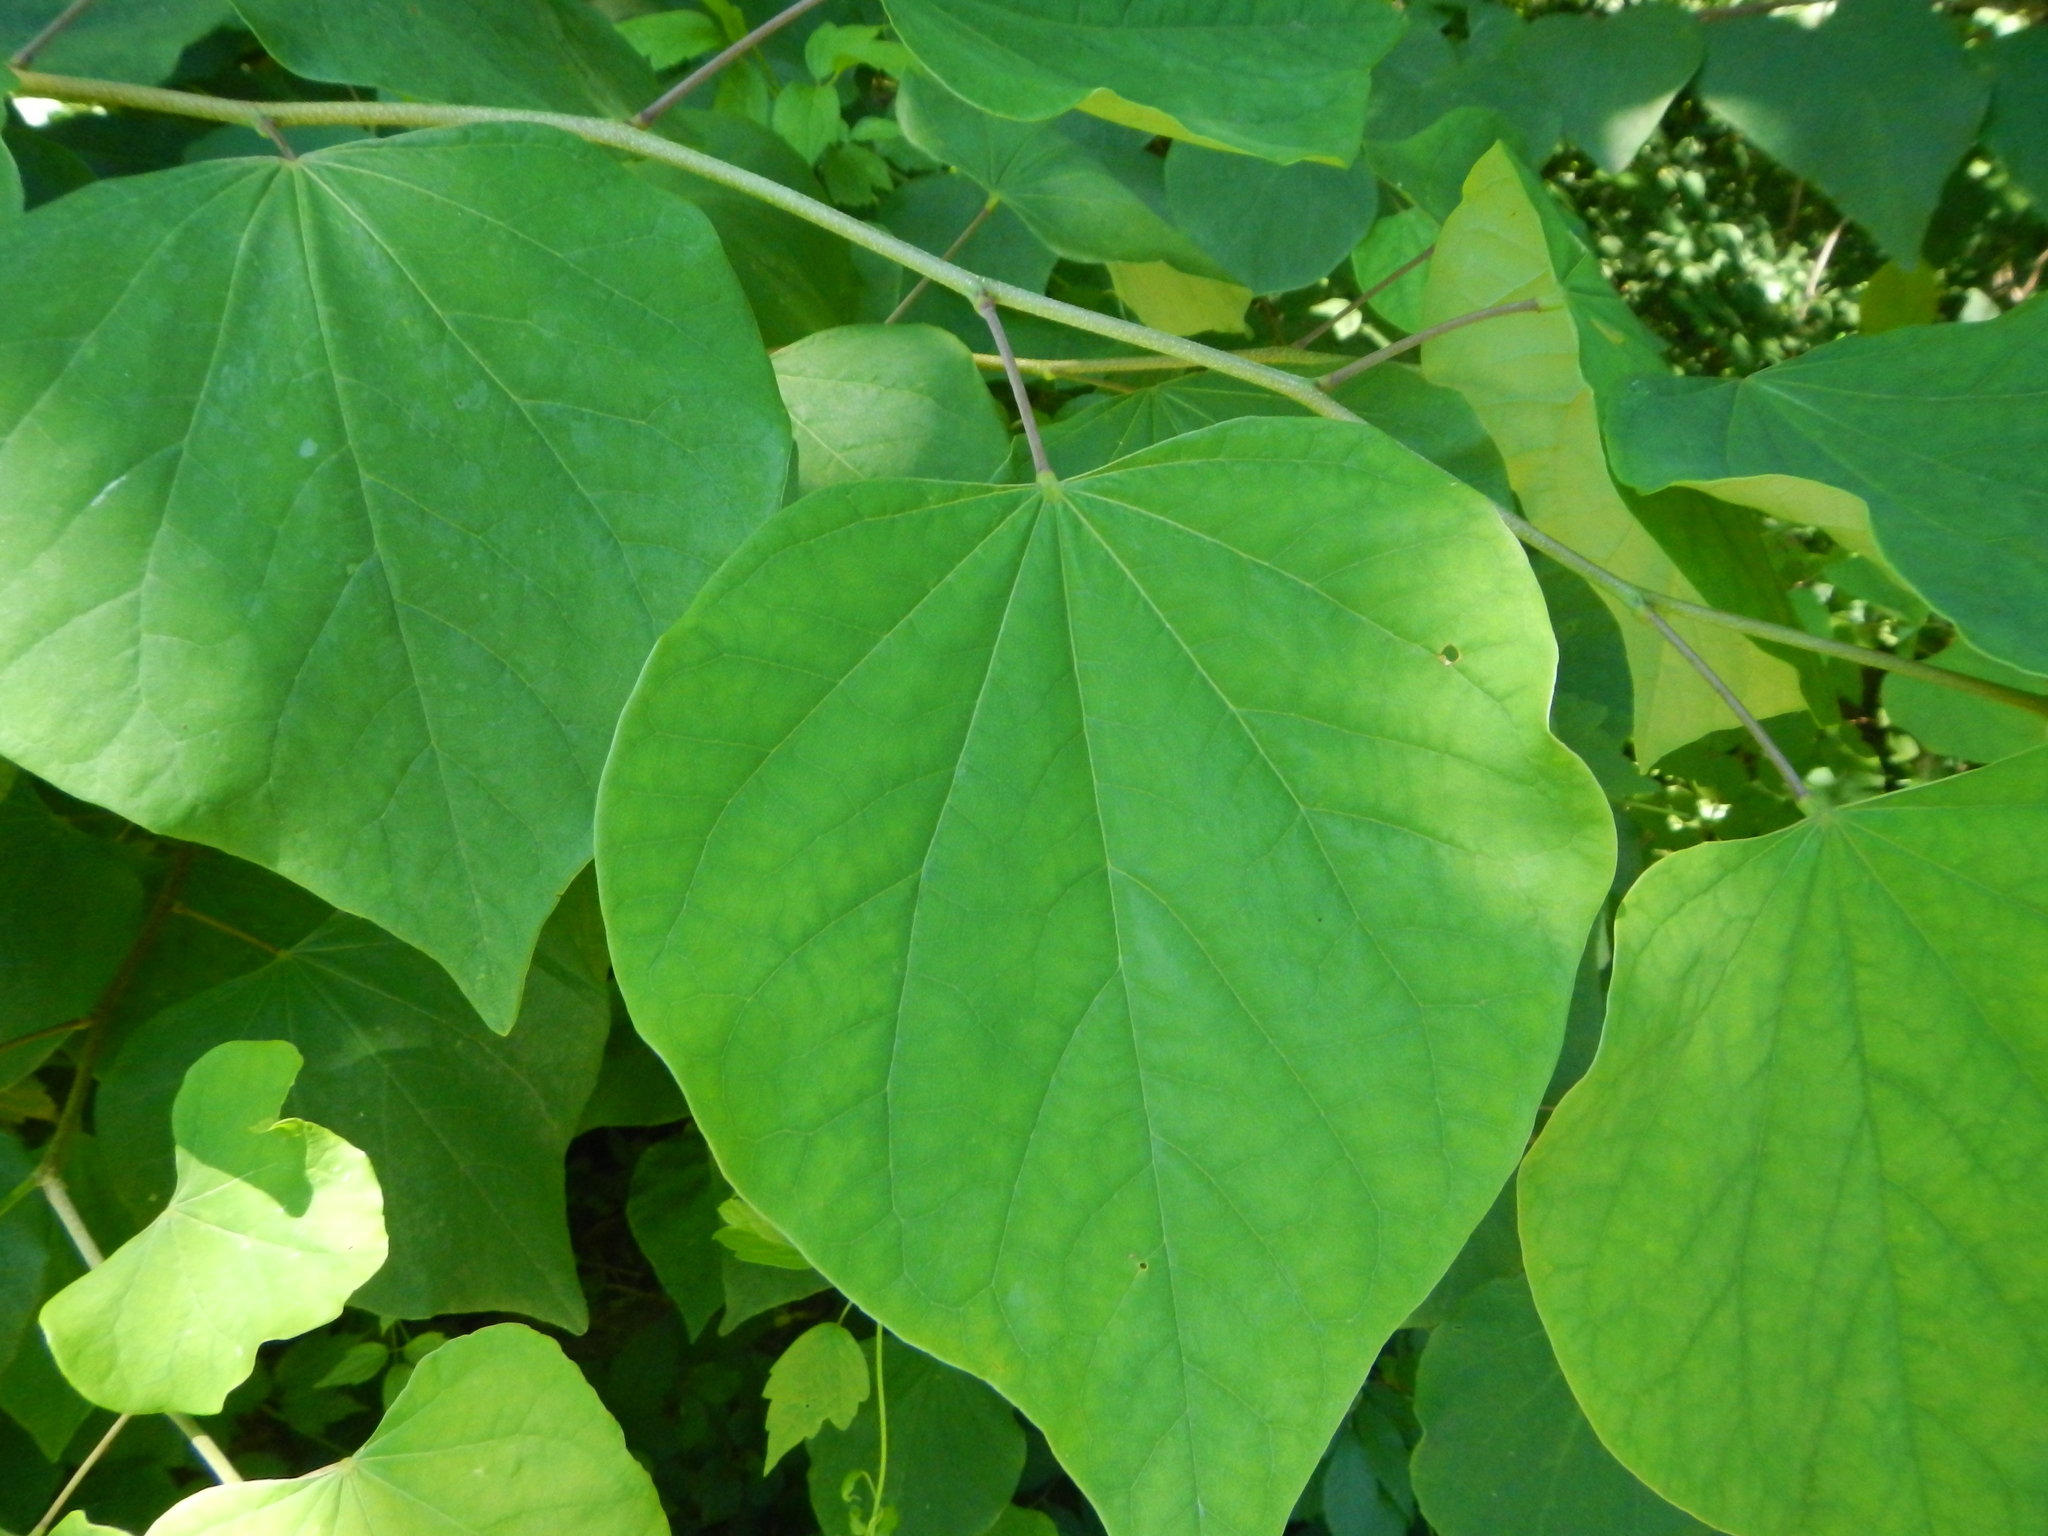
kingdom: Plantae
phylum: Tracheophyta
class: Magnoliopsida
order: Fabales
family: Fabaceae
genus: Cercis
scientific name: Cercis canadensis
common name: Eastern redbud
